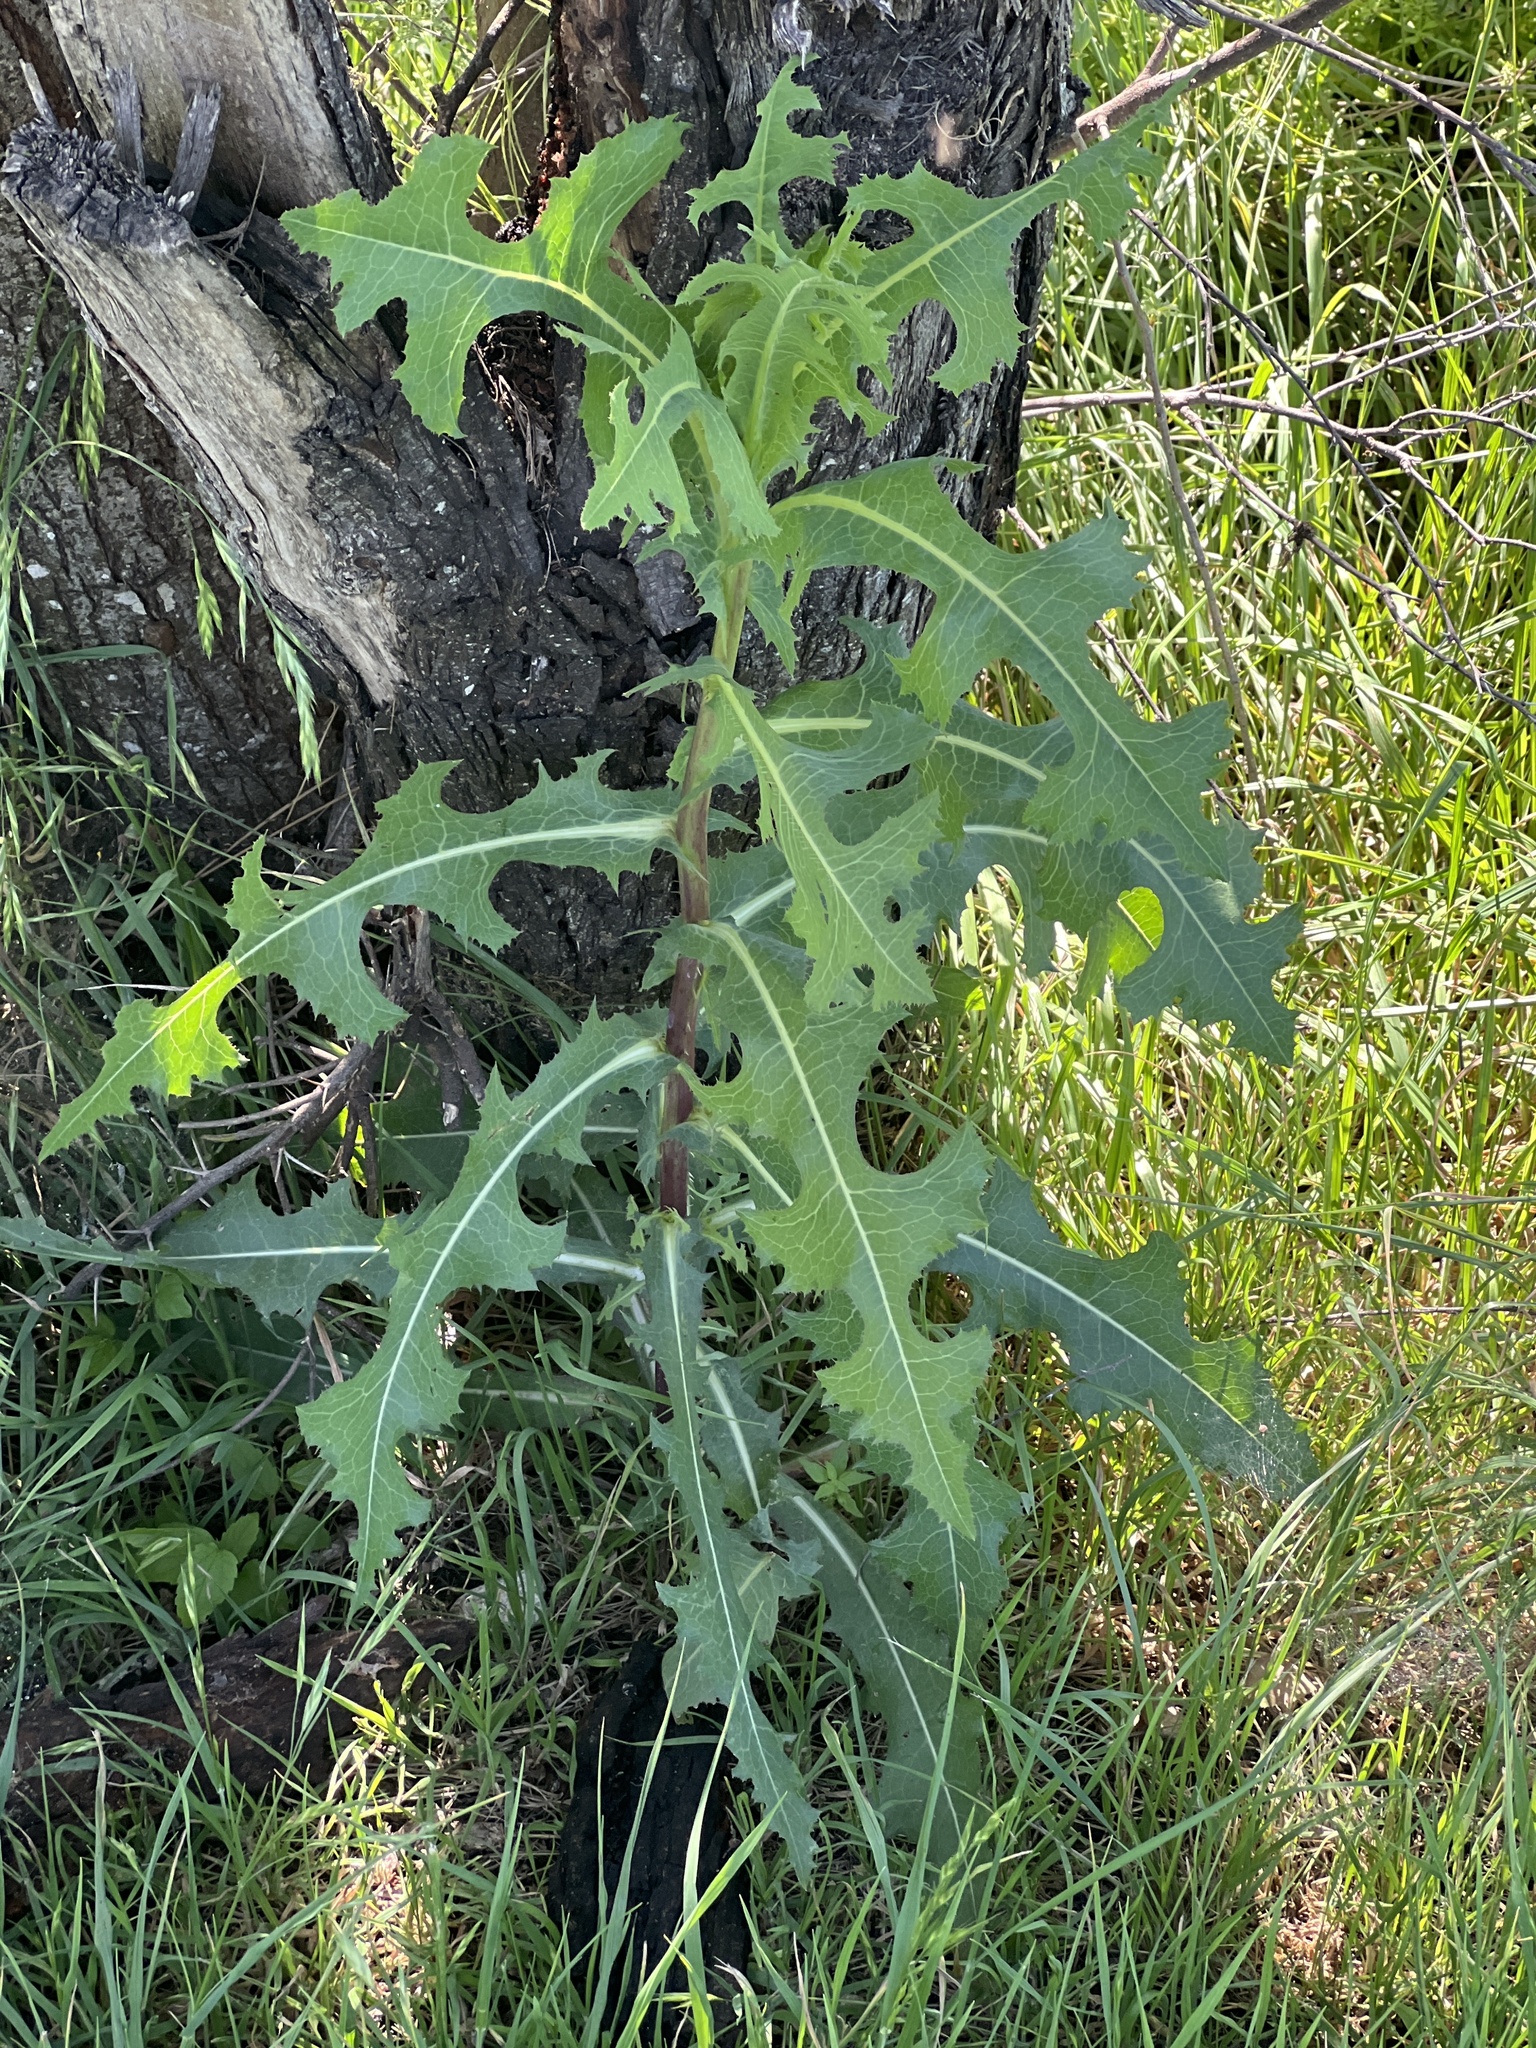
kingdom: Plantae
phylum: Tracheophyta
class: Magnoliopsida
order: Asterales
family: Asteraceae
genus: Lactuca
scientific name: Lactuca serriola
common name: Prickly lettuce
